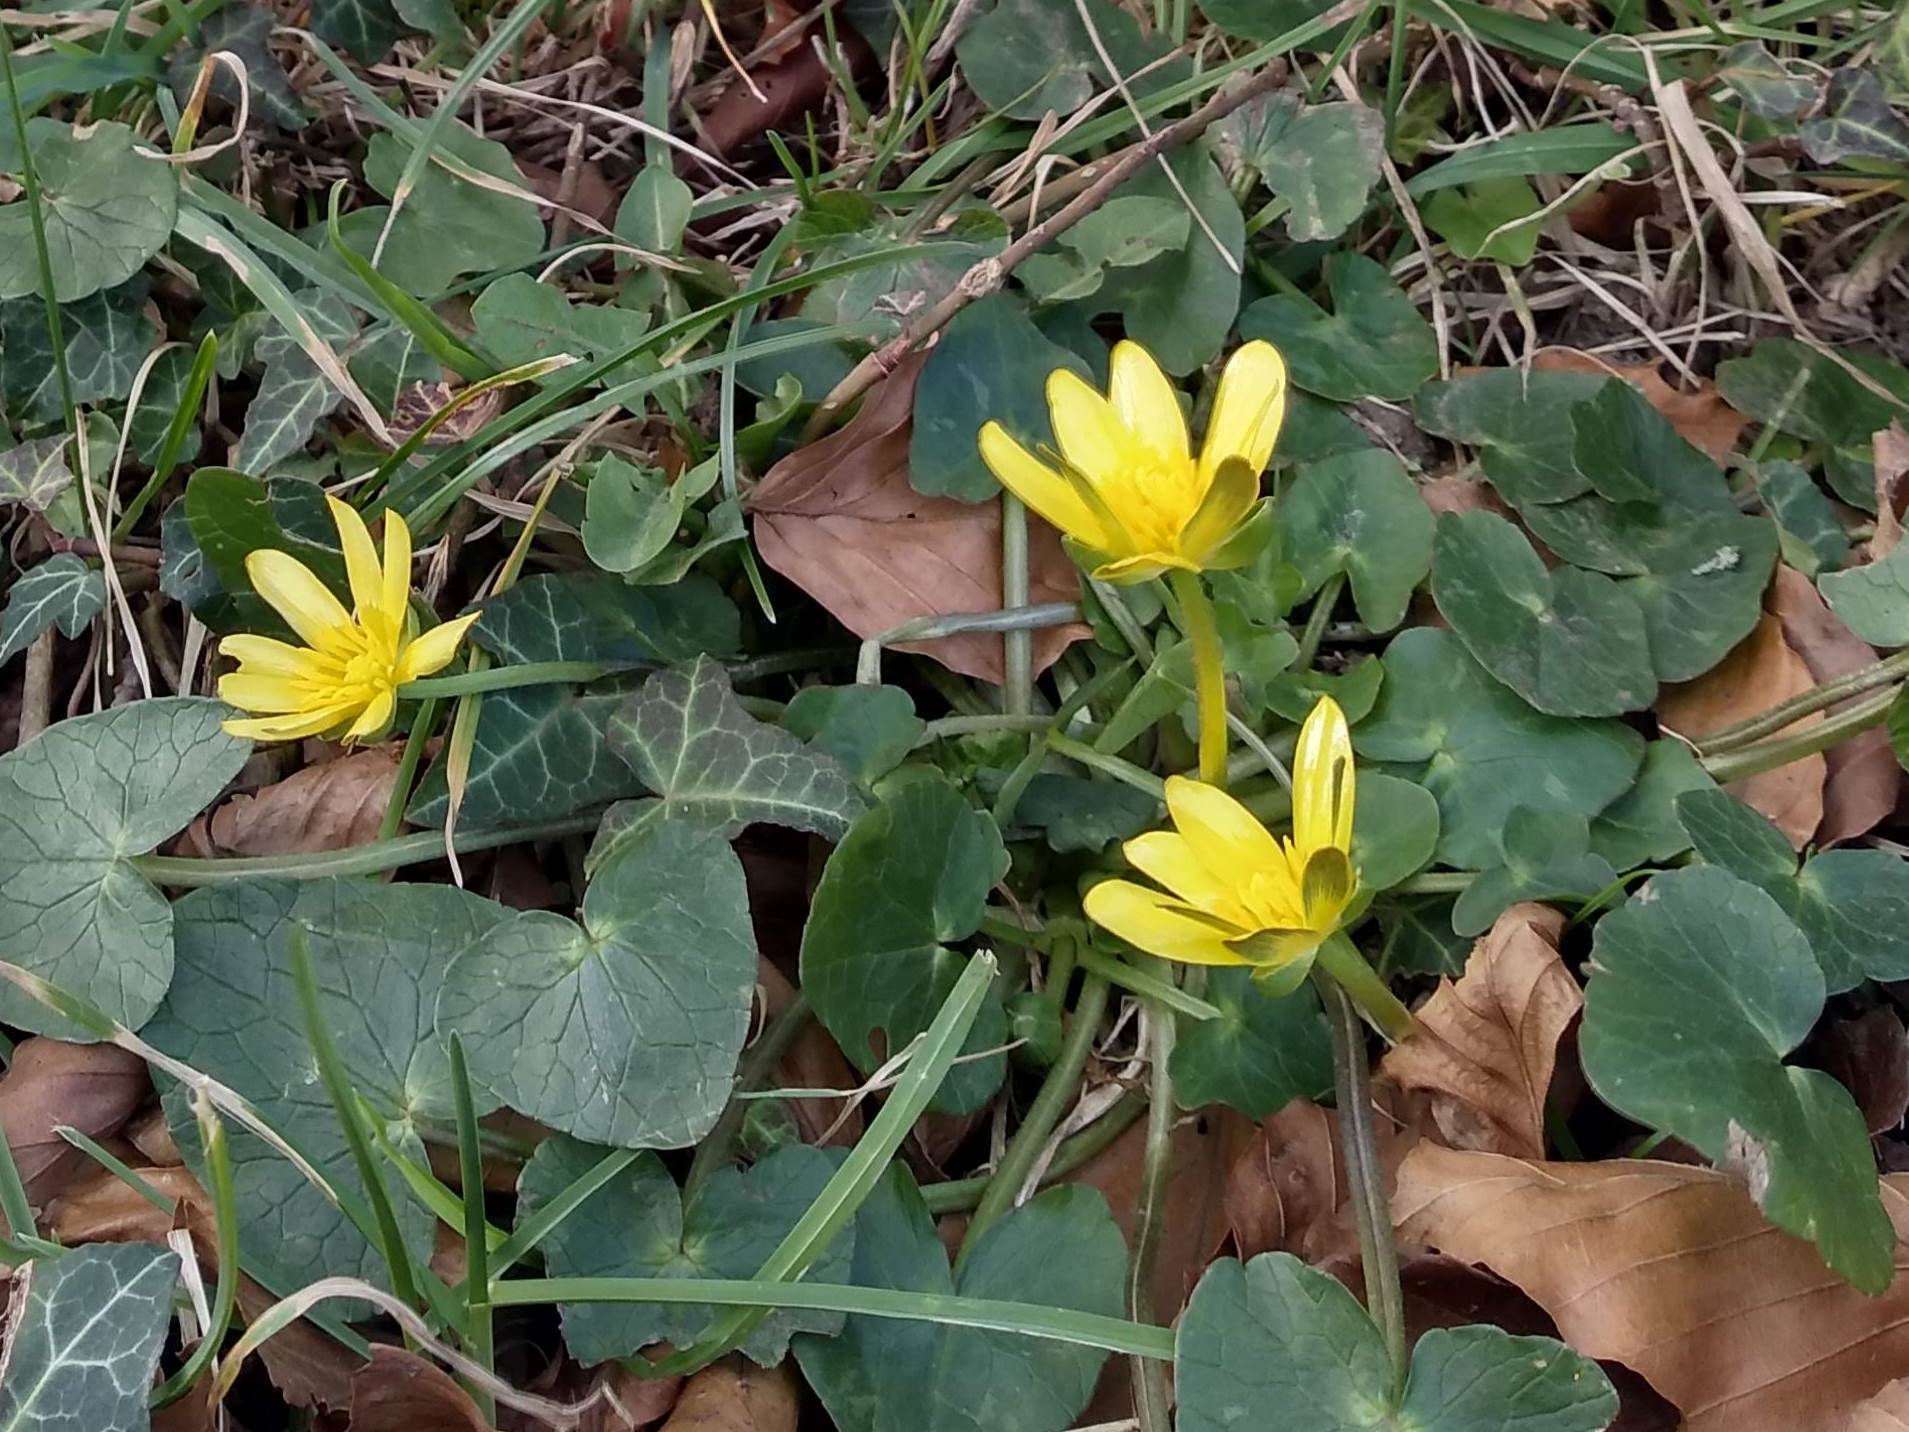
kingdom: Plantae
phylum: Tracheophyta
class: Magnoliopsida
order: Ranunculales
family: Ranunculaceae
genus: Ficaria
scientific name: Ficaria verna
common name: Lesser celandine
